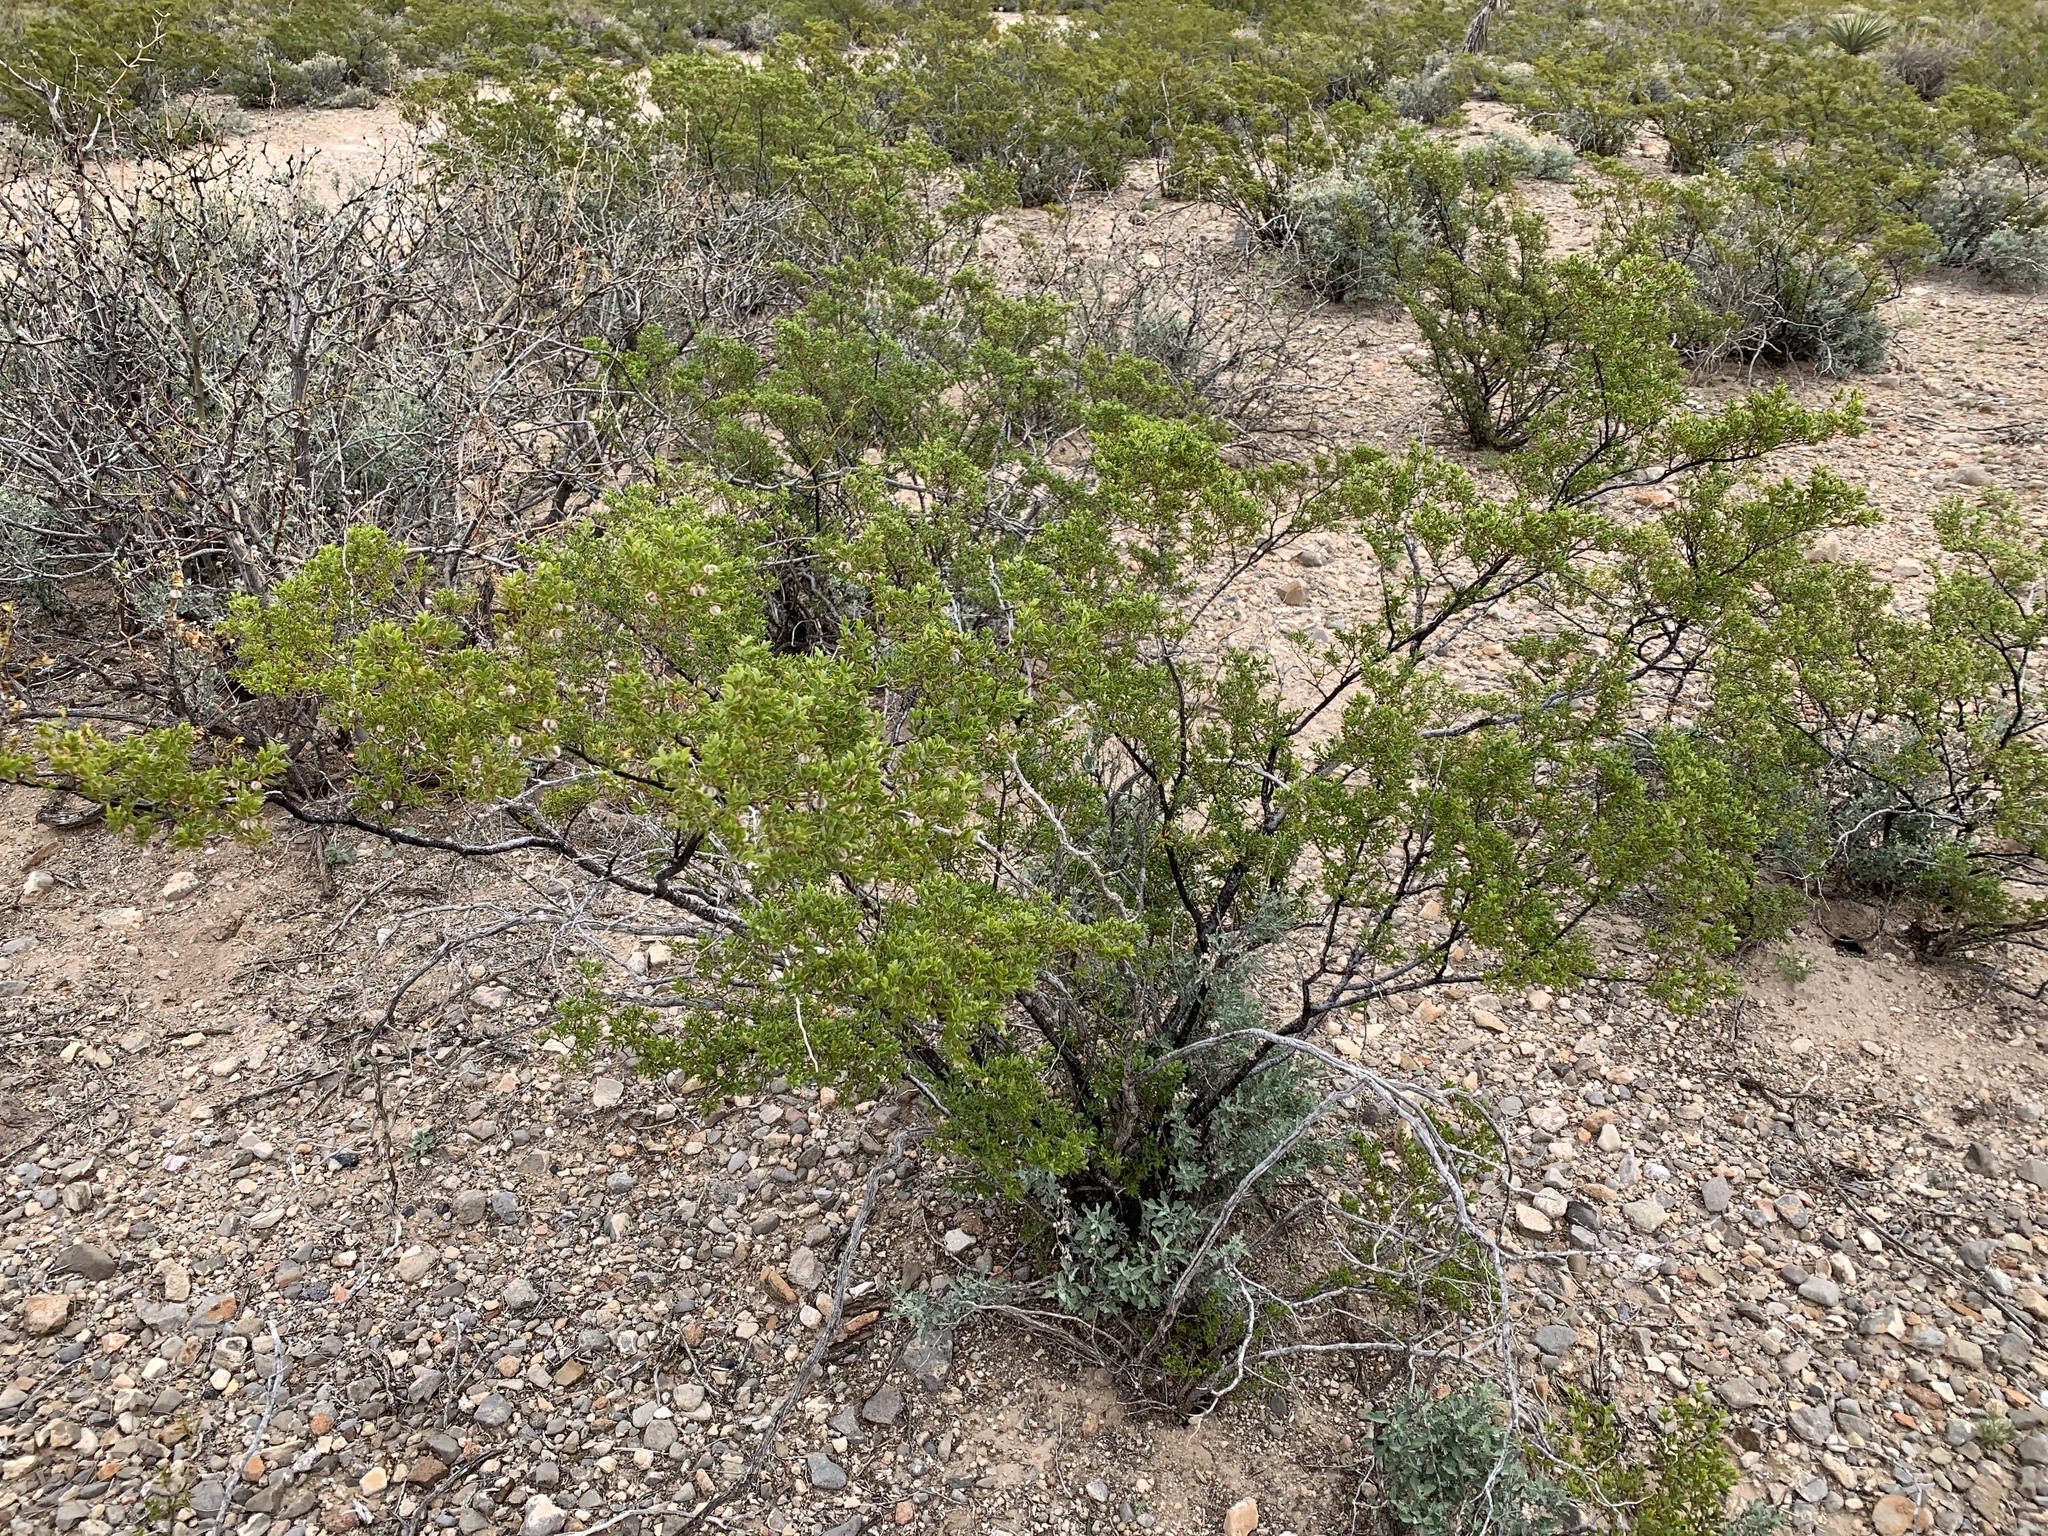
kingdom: Plantae
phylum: Tracheophyta
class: Magnoliopsida
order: Zygophyllales
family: Zygophyllaceae
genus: Larrea
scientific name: Larrea tridentata
